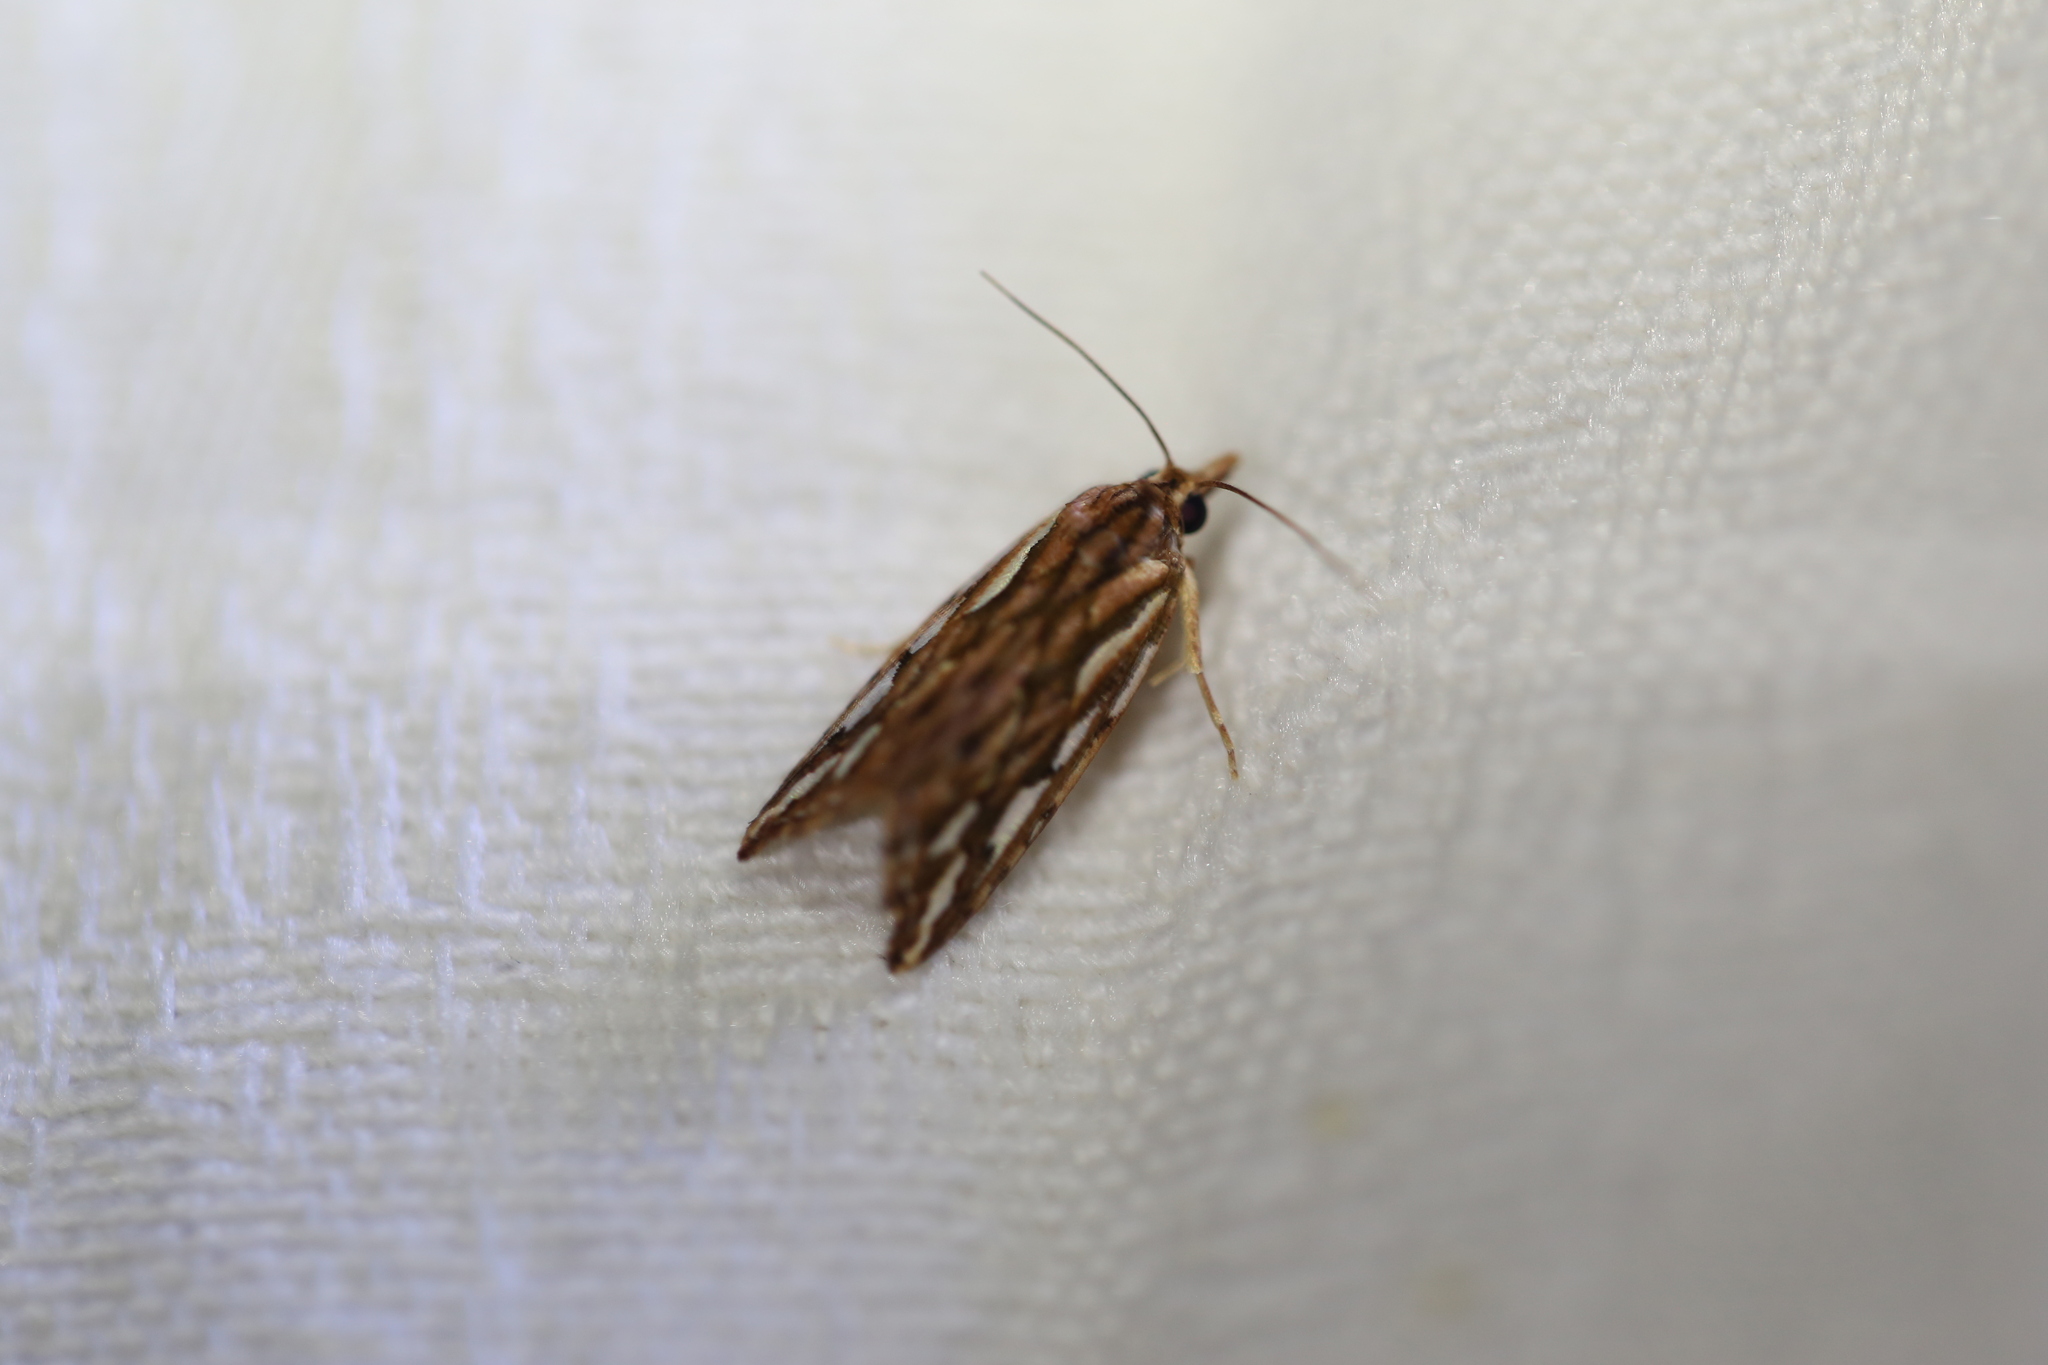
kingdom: Animalia
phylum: Arthropoda
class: Insecta
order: Lepidoptera
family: Erebidae
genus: Meyrickella
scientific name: Meyrickella torquesauria
